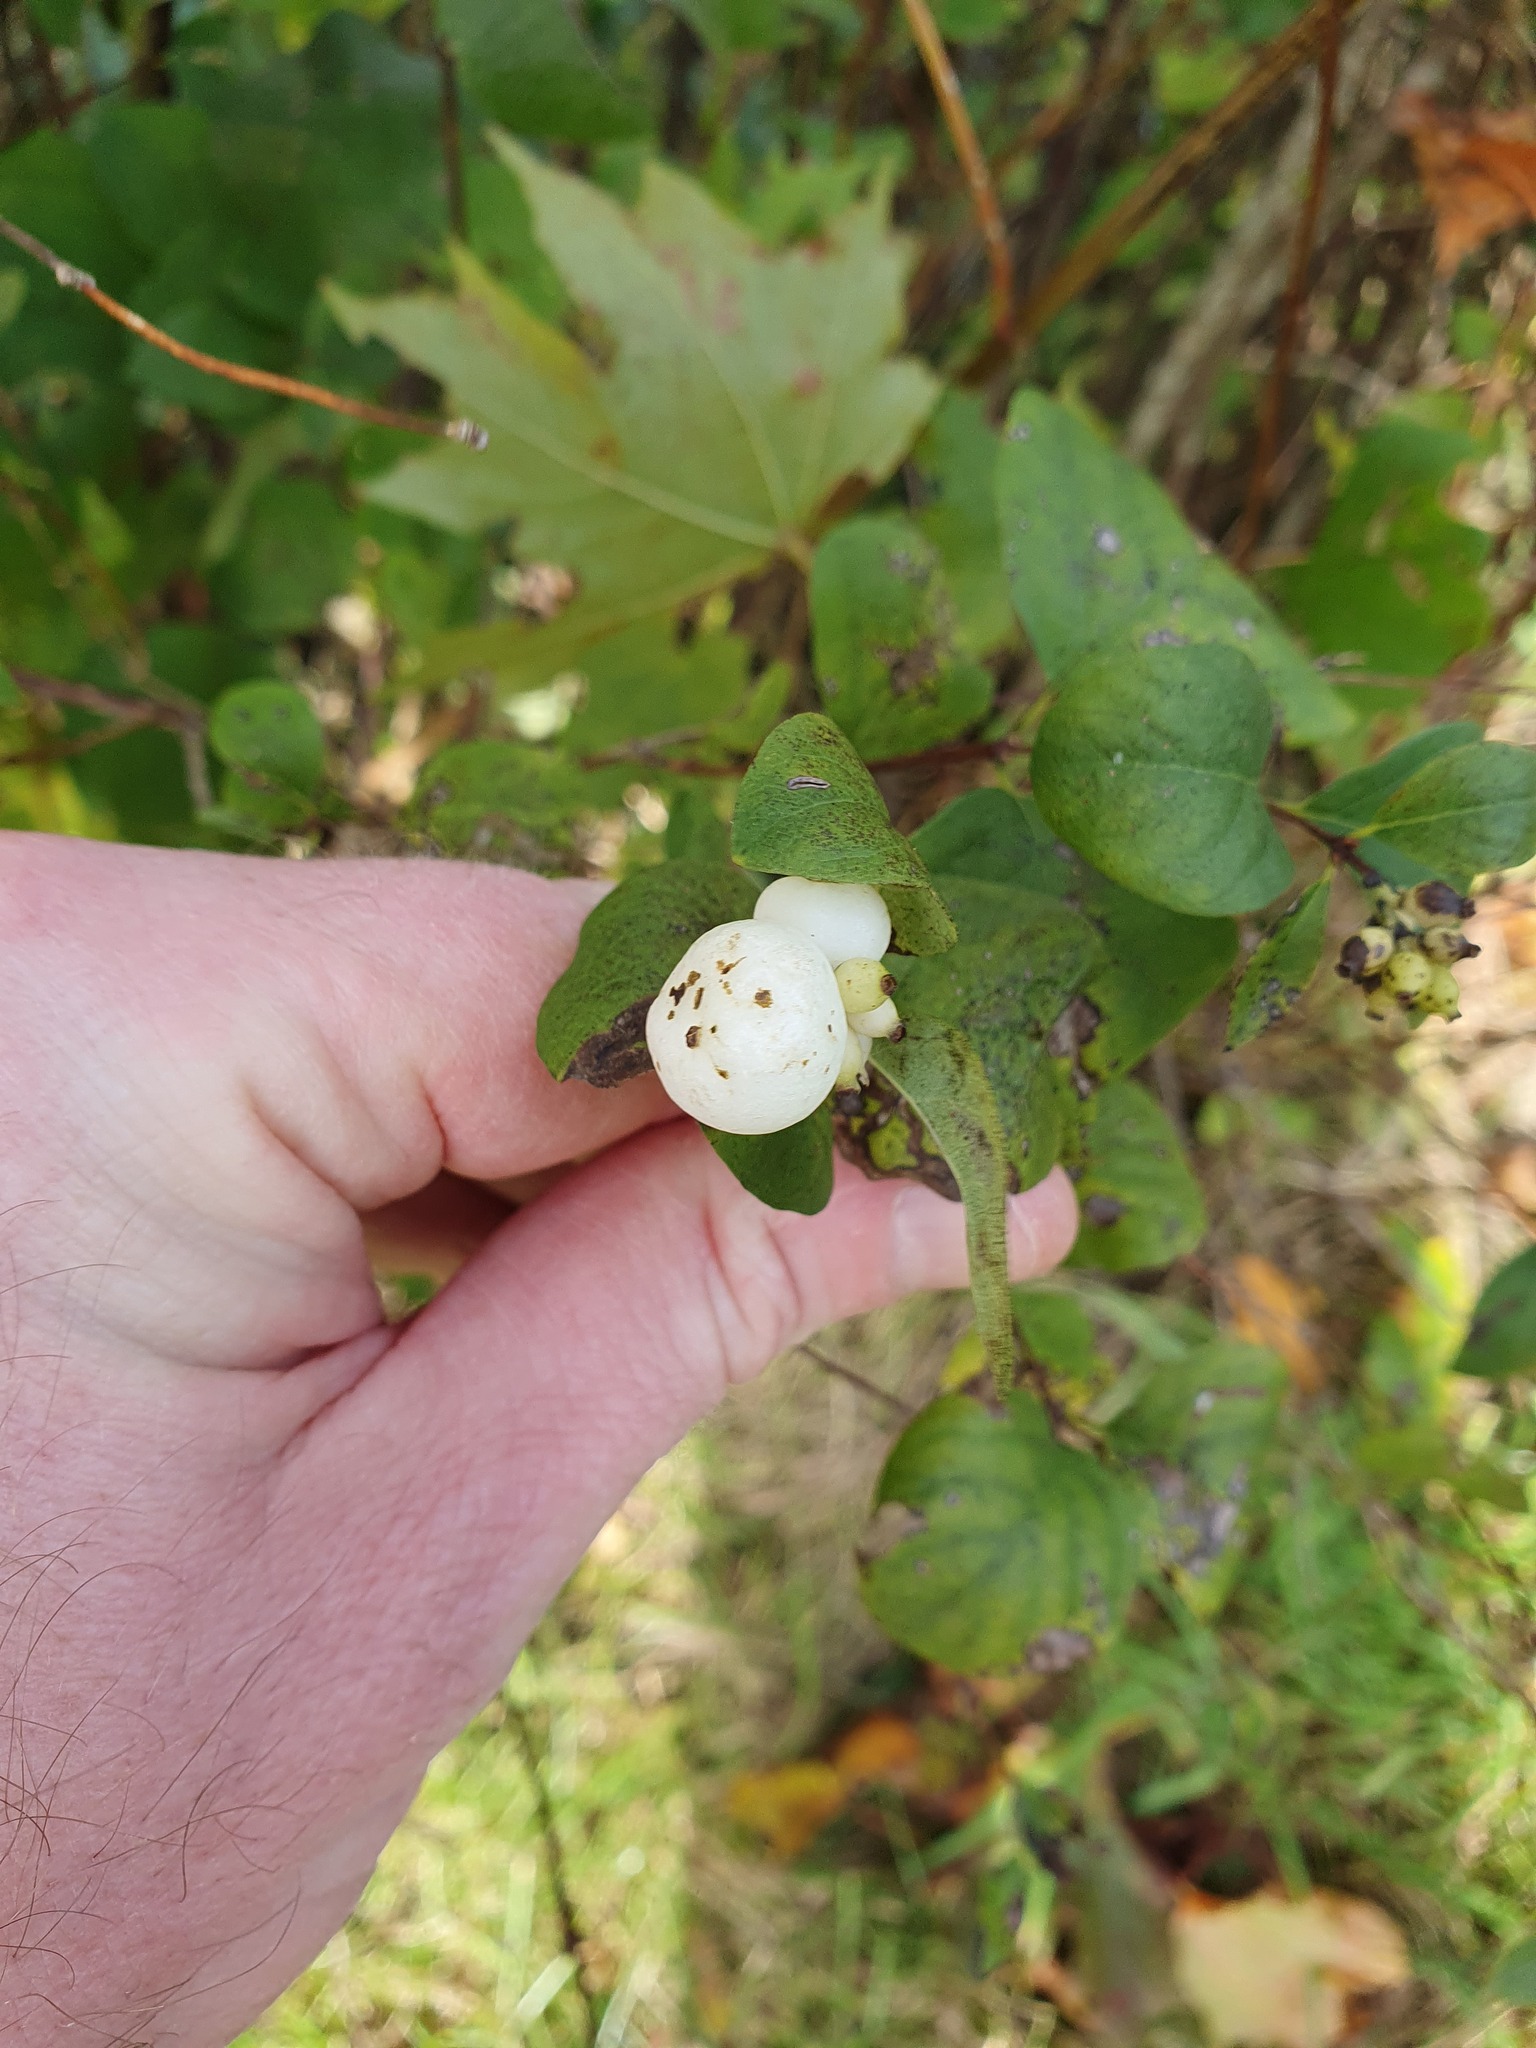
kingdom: Plantae
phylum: Tracheophyta
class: Magnoliopsida
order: Dipsacales
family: Caprifoliaceae
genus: Symphoricarpos
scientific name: Symphoricarpos albus
